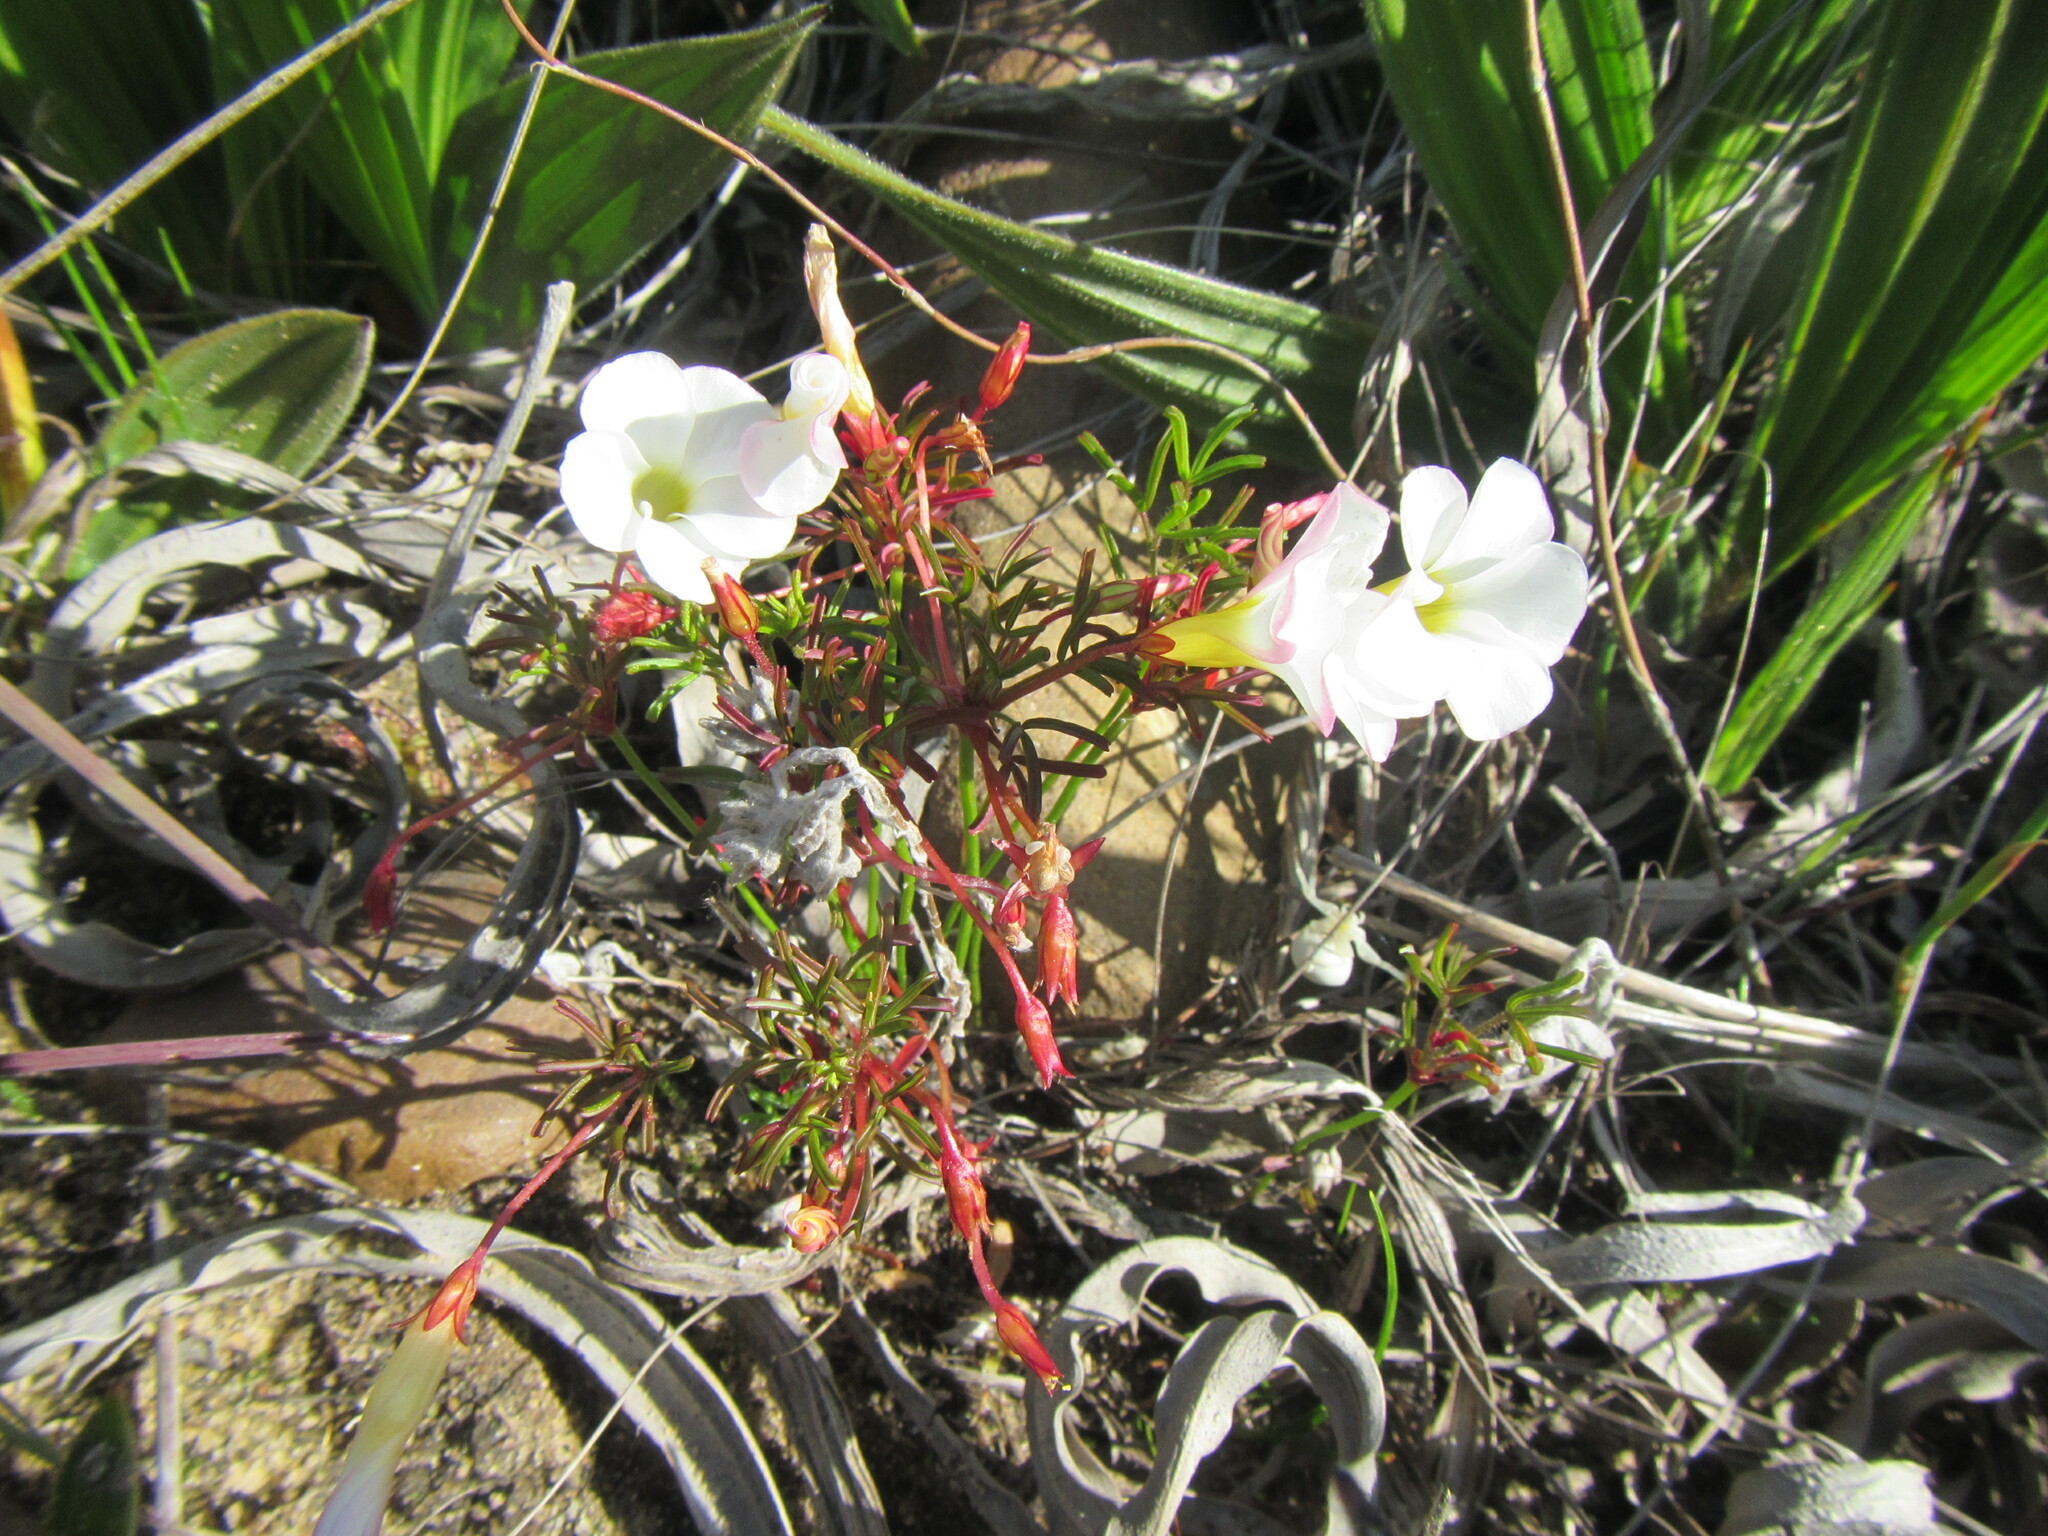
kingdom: Plantae
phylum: Tracheophyta
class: Magnoliopsida
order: Oxalidales
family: Oxalidaceae
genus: Oxalis
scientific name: Oxalis goniorhiza
